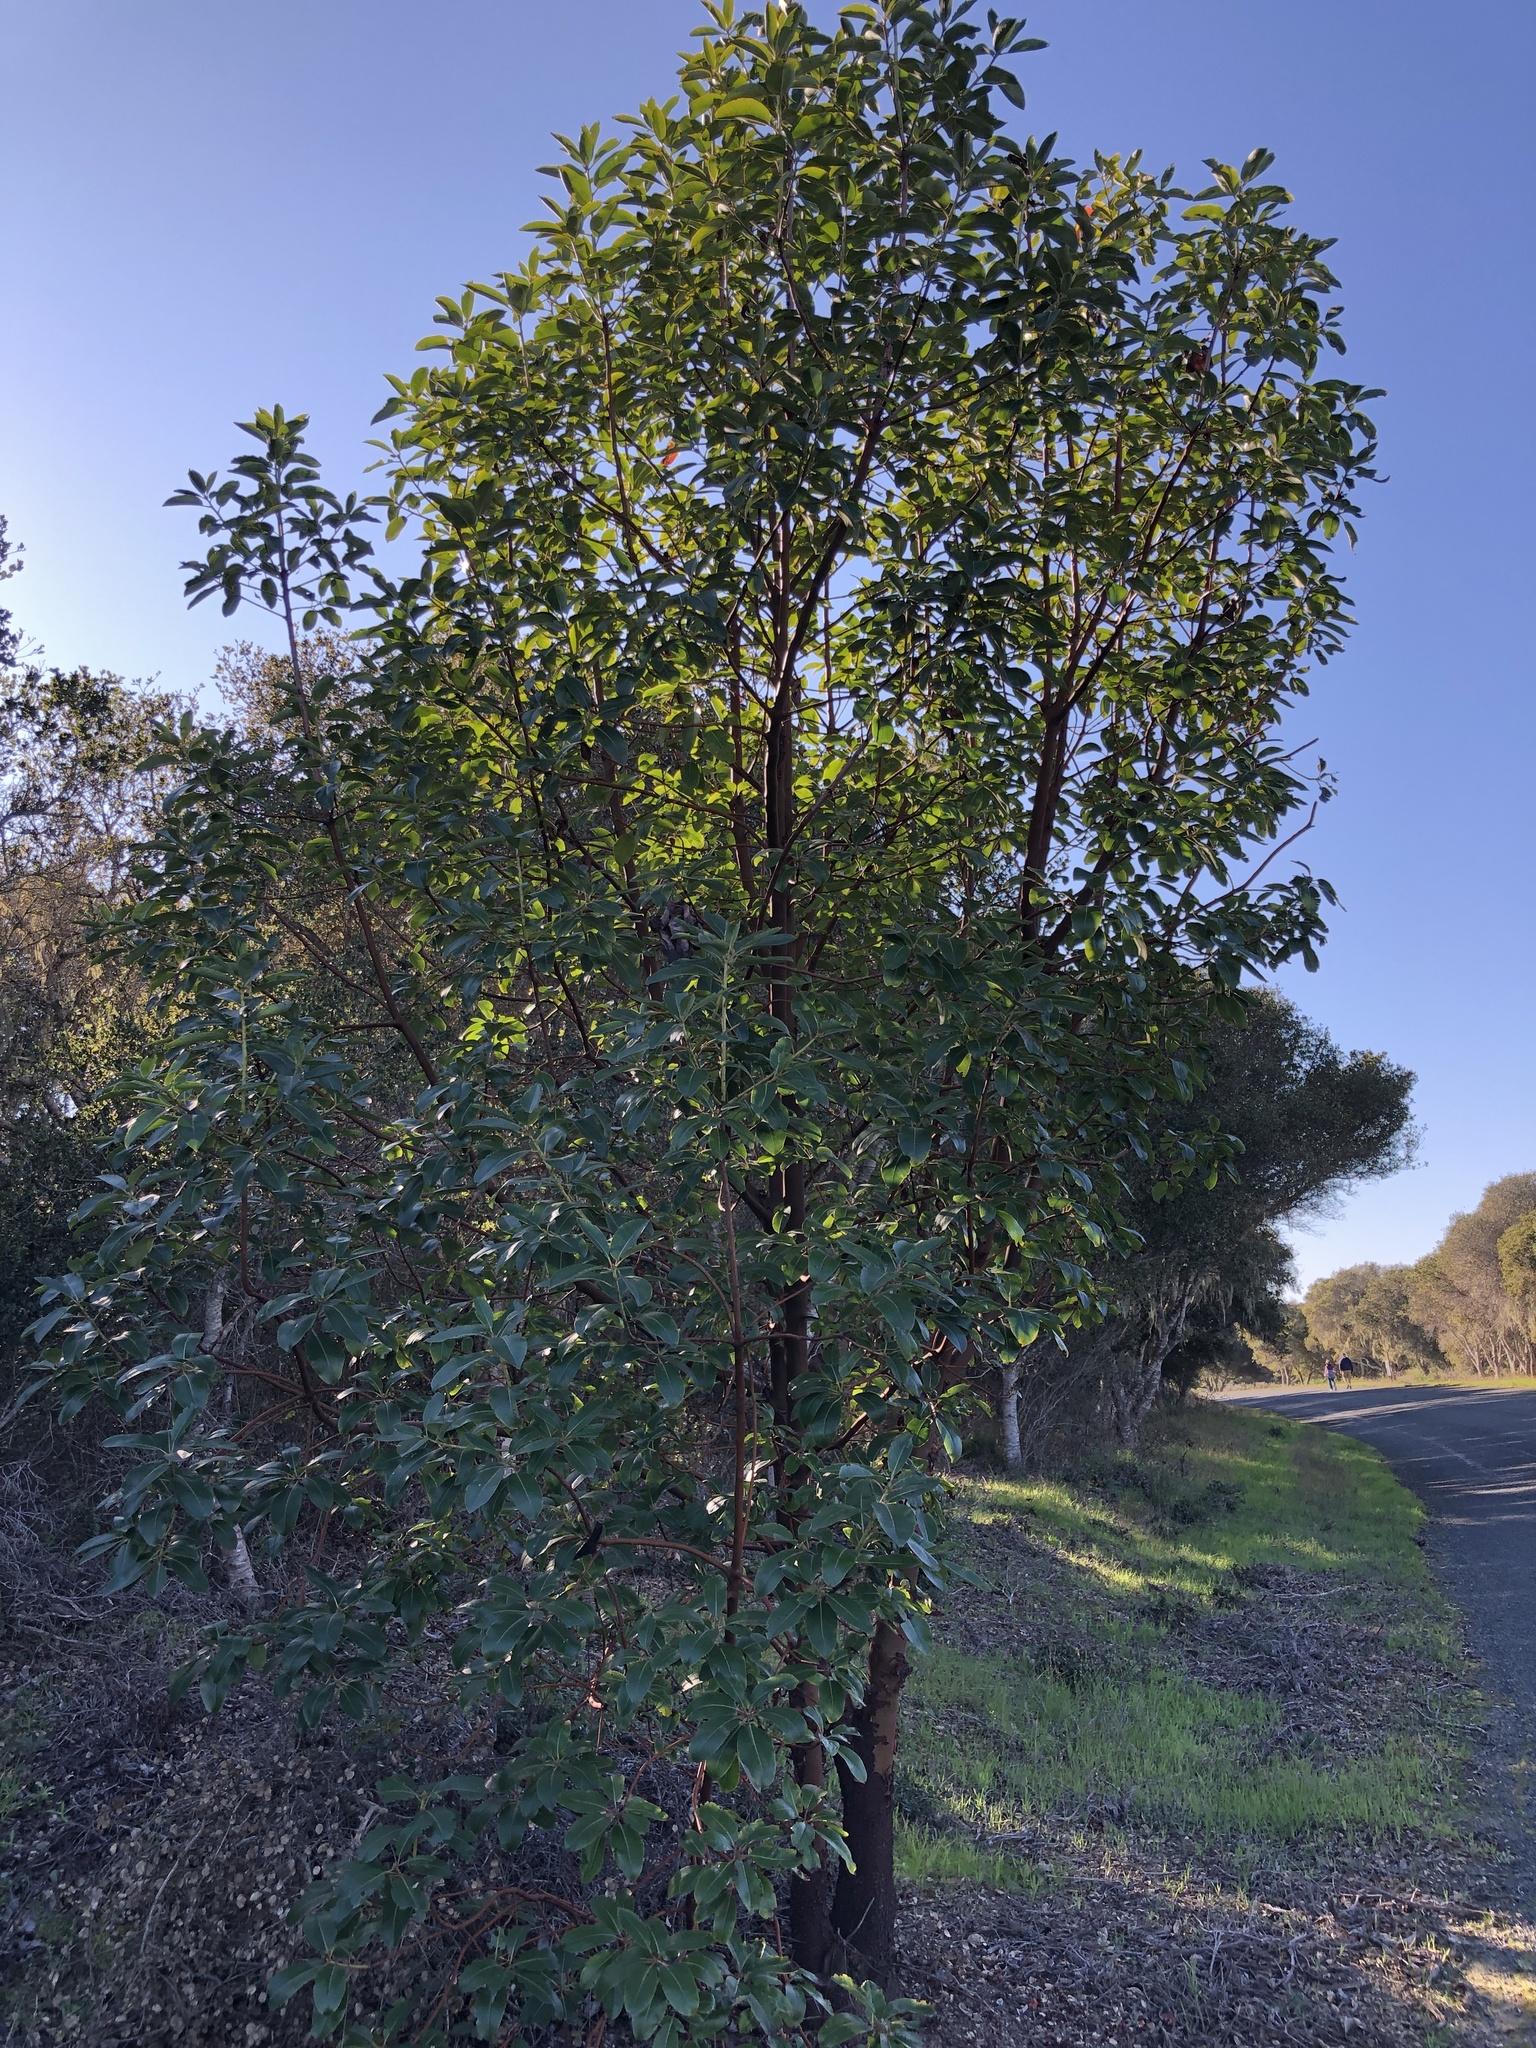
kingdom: Plantae
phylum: Tracheophyta
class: Magnoliopsida
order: Ericales
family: Ericaceae
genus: Arbutus
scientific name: Arbutus menziesii
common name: Pacific madrone
